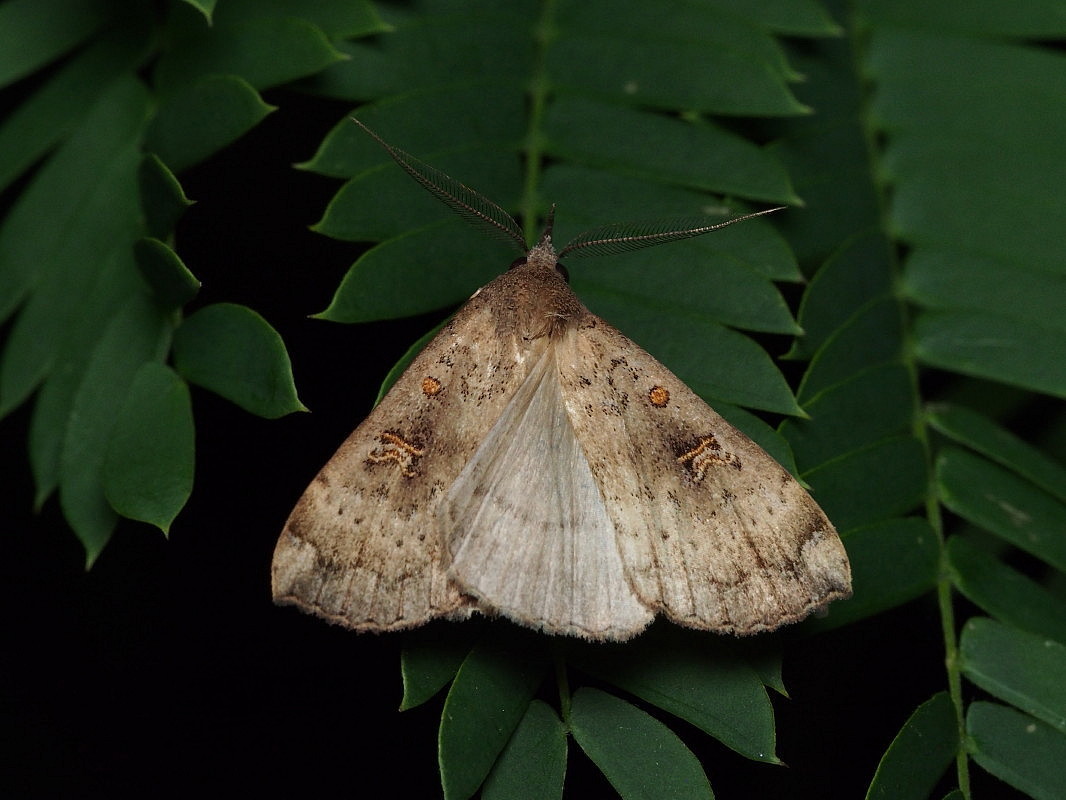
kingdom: Animalia
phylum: Arthropoda
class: Insecta
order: Lepidoptera
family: Erebidae
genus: Rhapsa
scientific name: Rhapsa scotosialis
